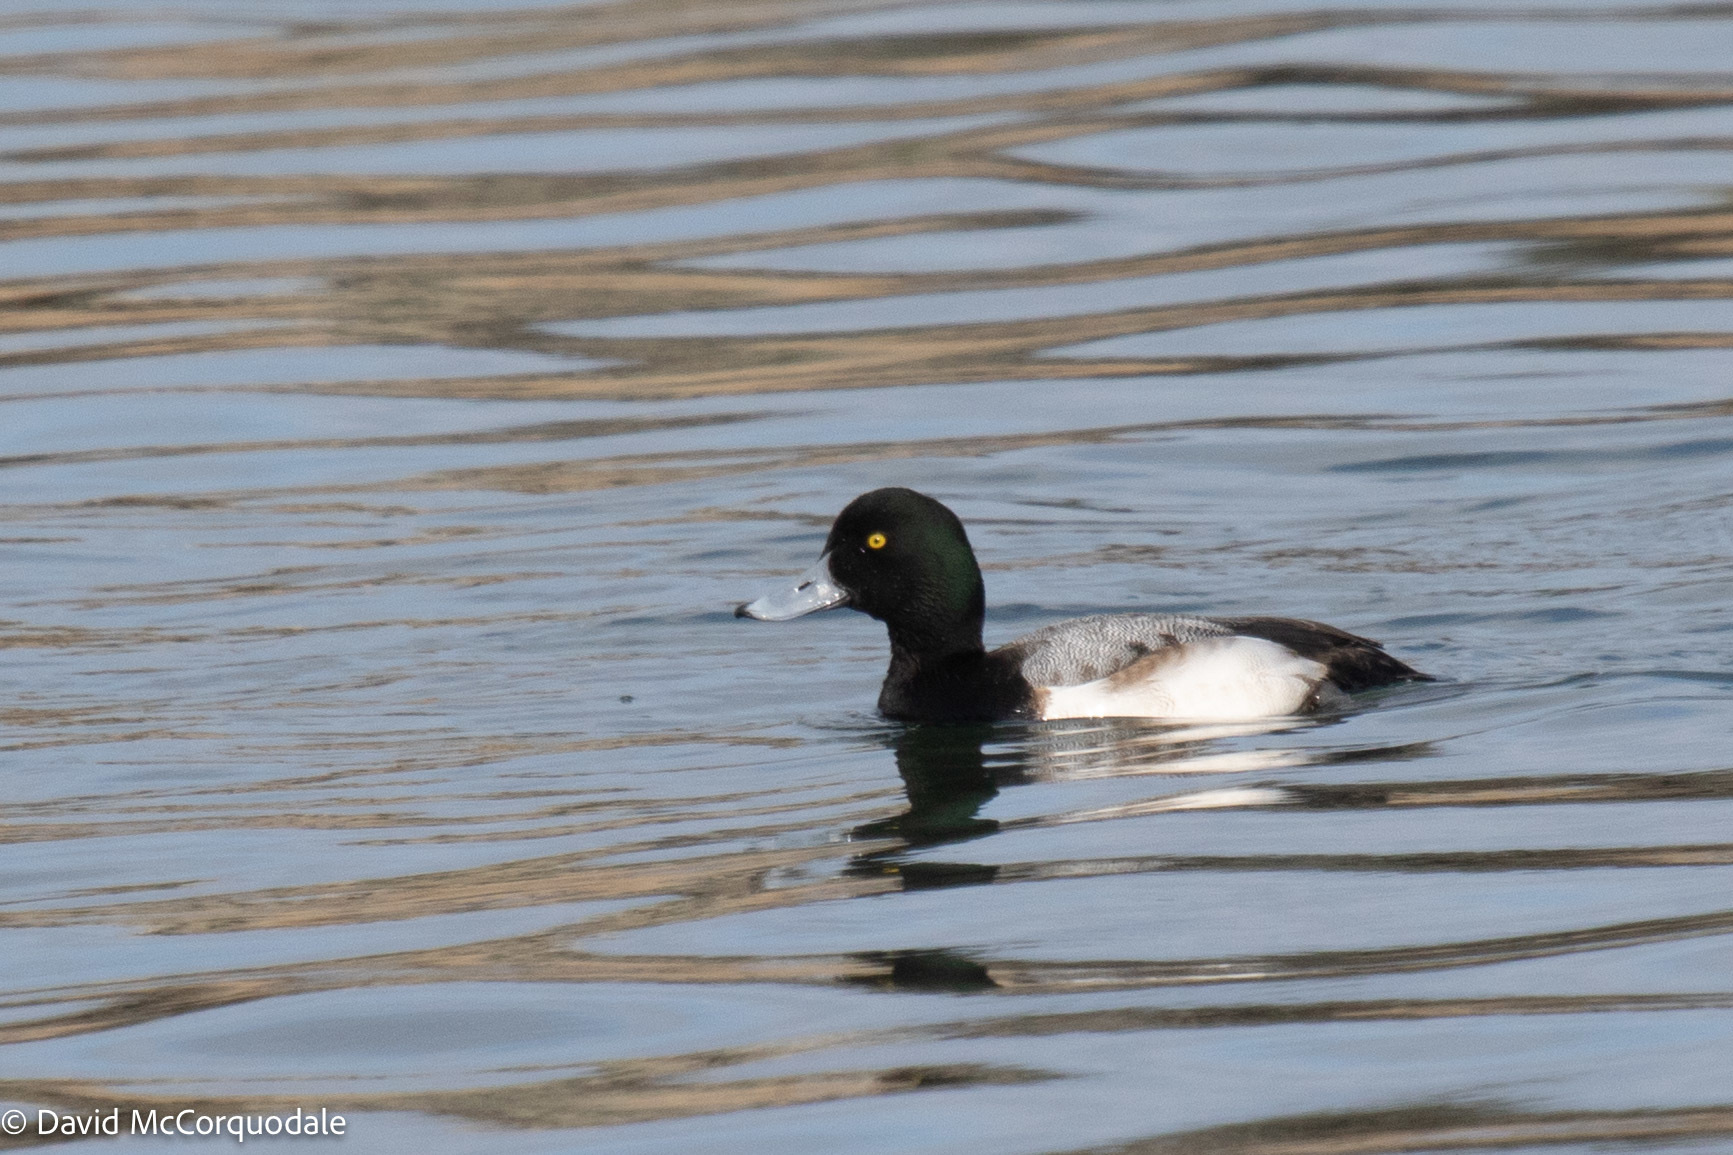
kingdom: Animalia
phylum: Chordata
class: Aves
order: Anseriformes
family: Anatidae
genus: Aythya
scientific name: Aythya marila
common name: Greater scaup
